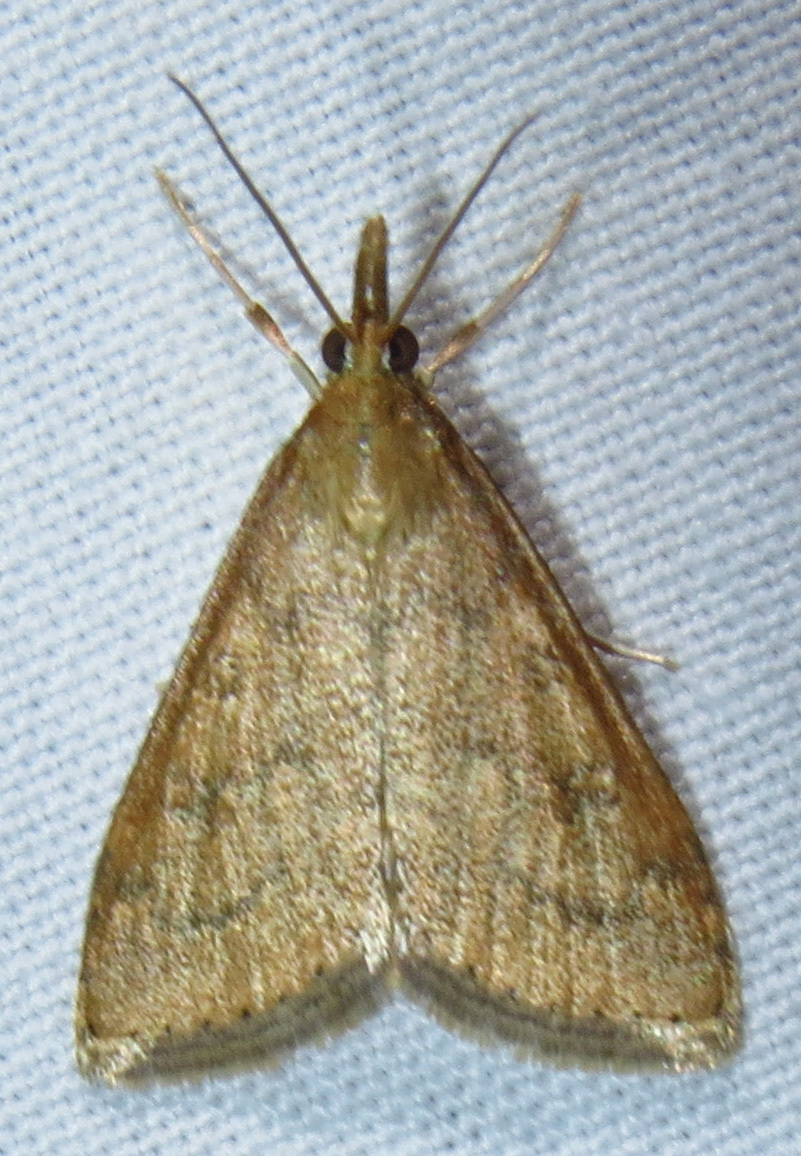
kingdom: Animalia
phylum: Arthropoda
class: Insecta
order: Lepidoptera
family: Crambidae
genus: Udea
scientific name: Udea rubigalis
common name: Celery leaftier moth
